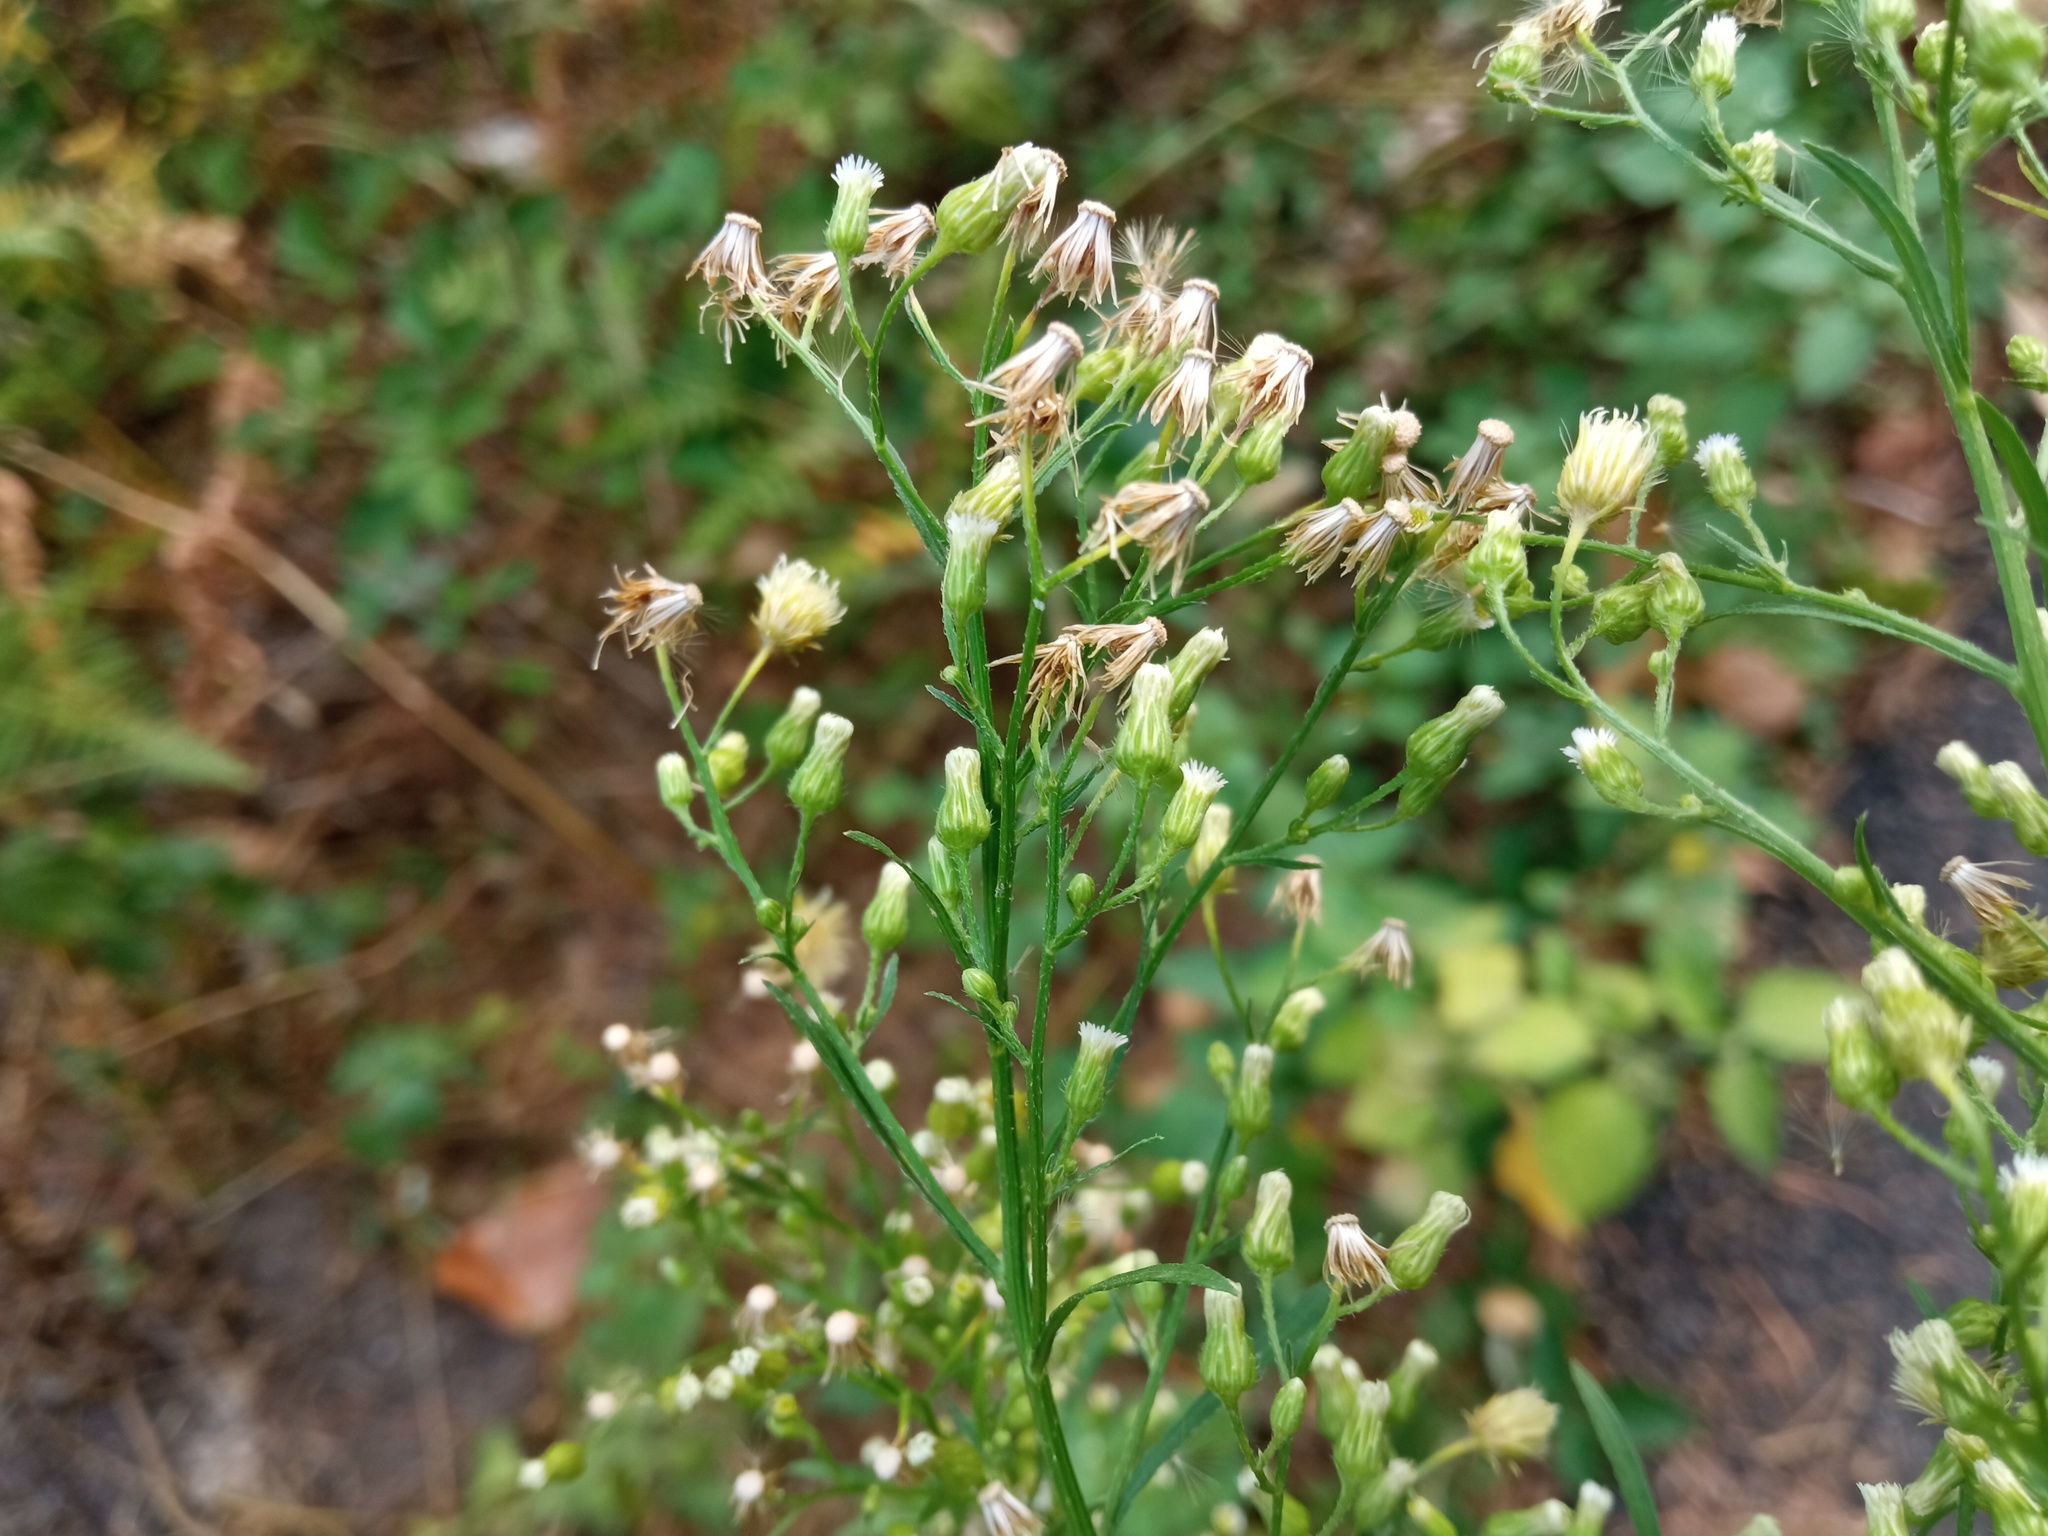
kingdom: Plantae
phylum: Tracheophyta
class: Magnoliopsida
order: Asterales
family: Asteraceae
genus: Erigeron
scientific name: Erigeron canadensis
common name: Canadian fleabane
